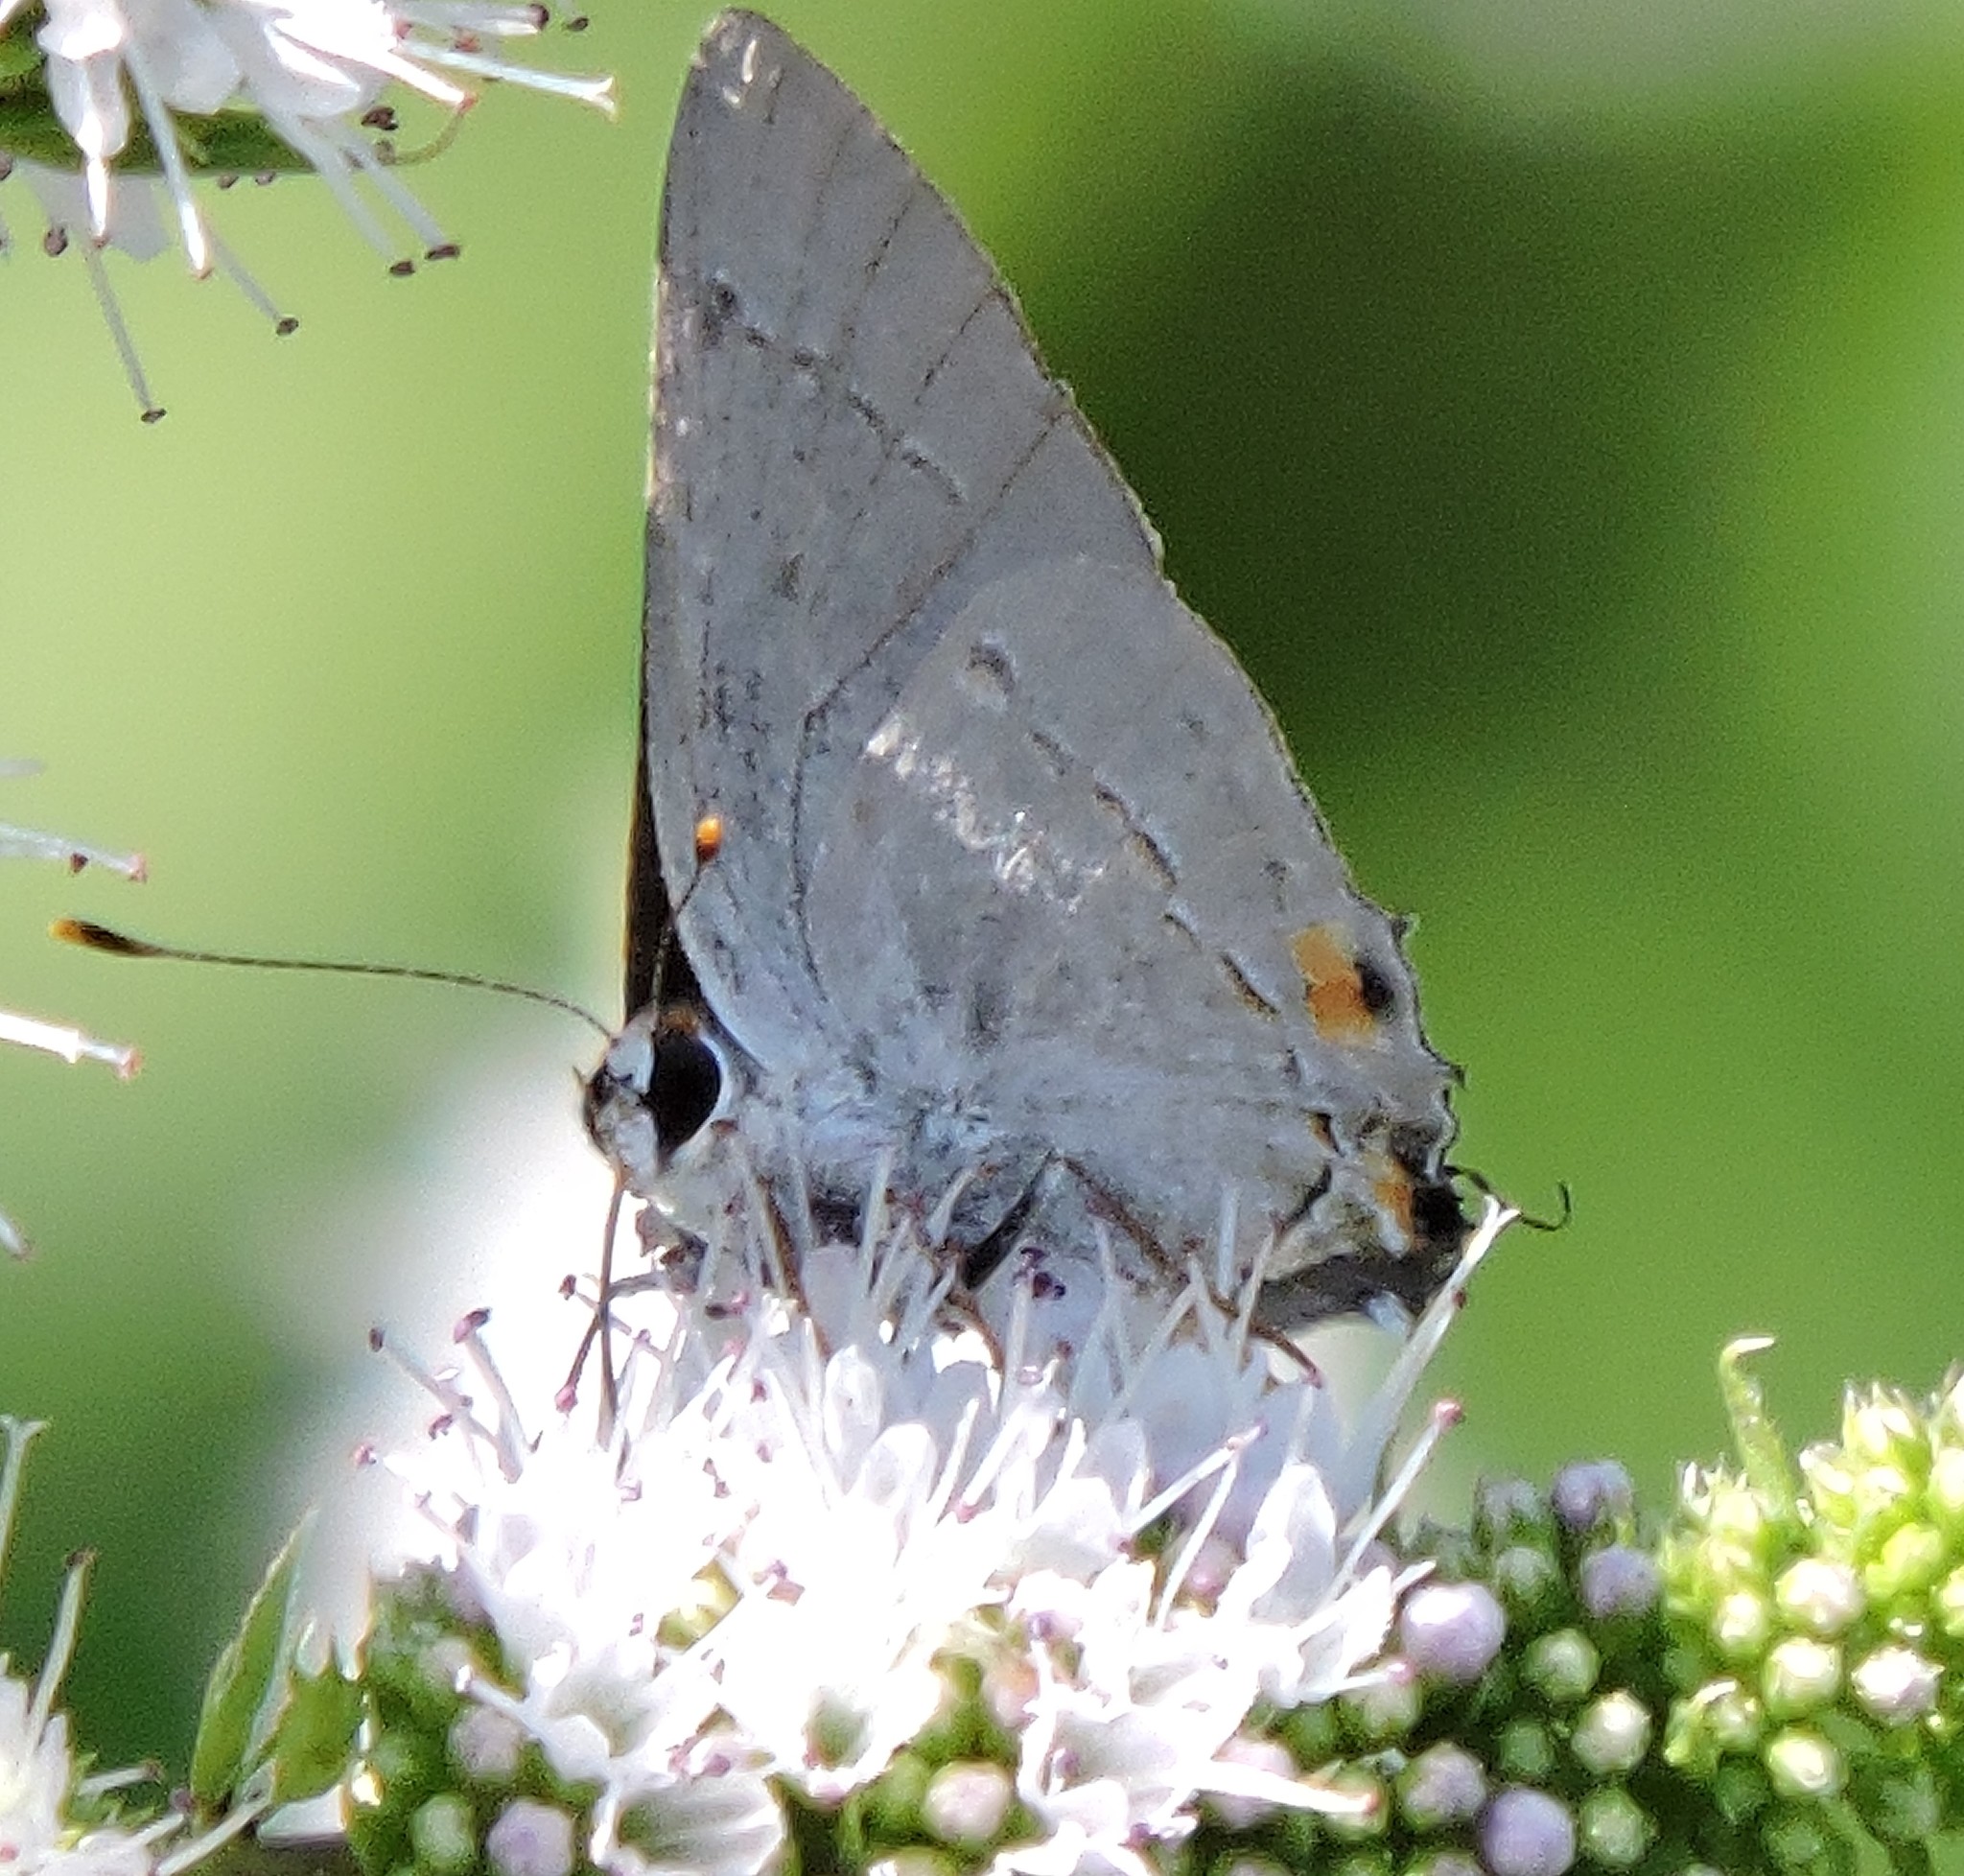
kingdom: Animalia
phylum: Arthropoda
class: Insecta
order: Lepidoptera
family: Lycaenidae
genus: Strymon
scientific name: Strymon melinus
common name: Gray hairstreak
